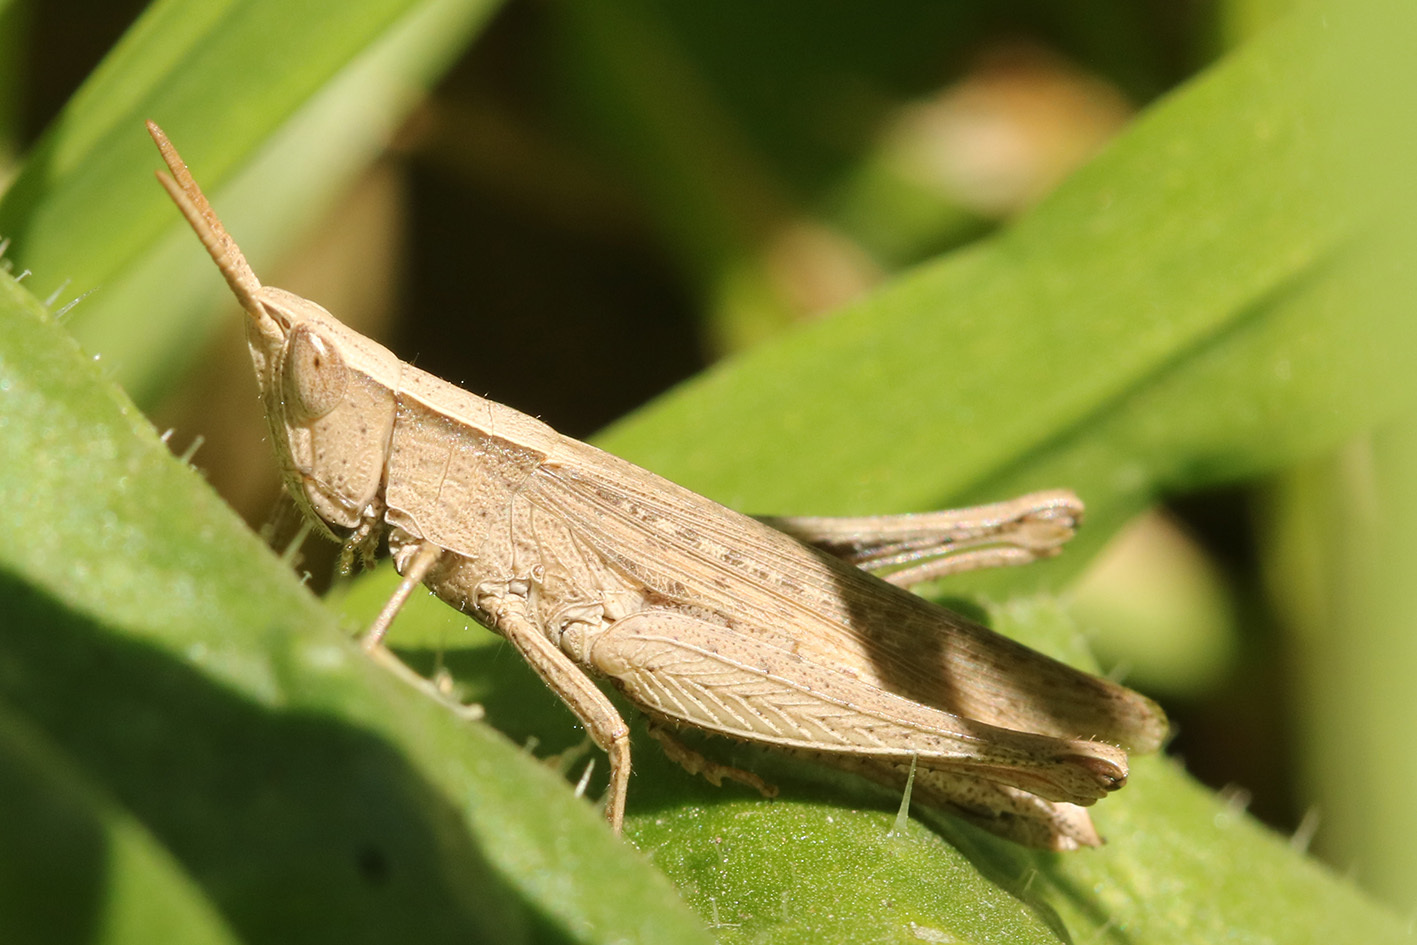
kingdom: Animalia
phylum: Arthropoda
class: Insecta
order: Orthoptera
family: Acrididae
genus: Laplatacris
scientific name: Laplatacris dispar
